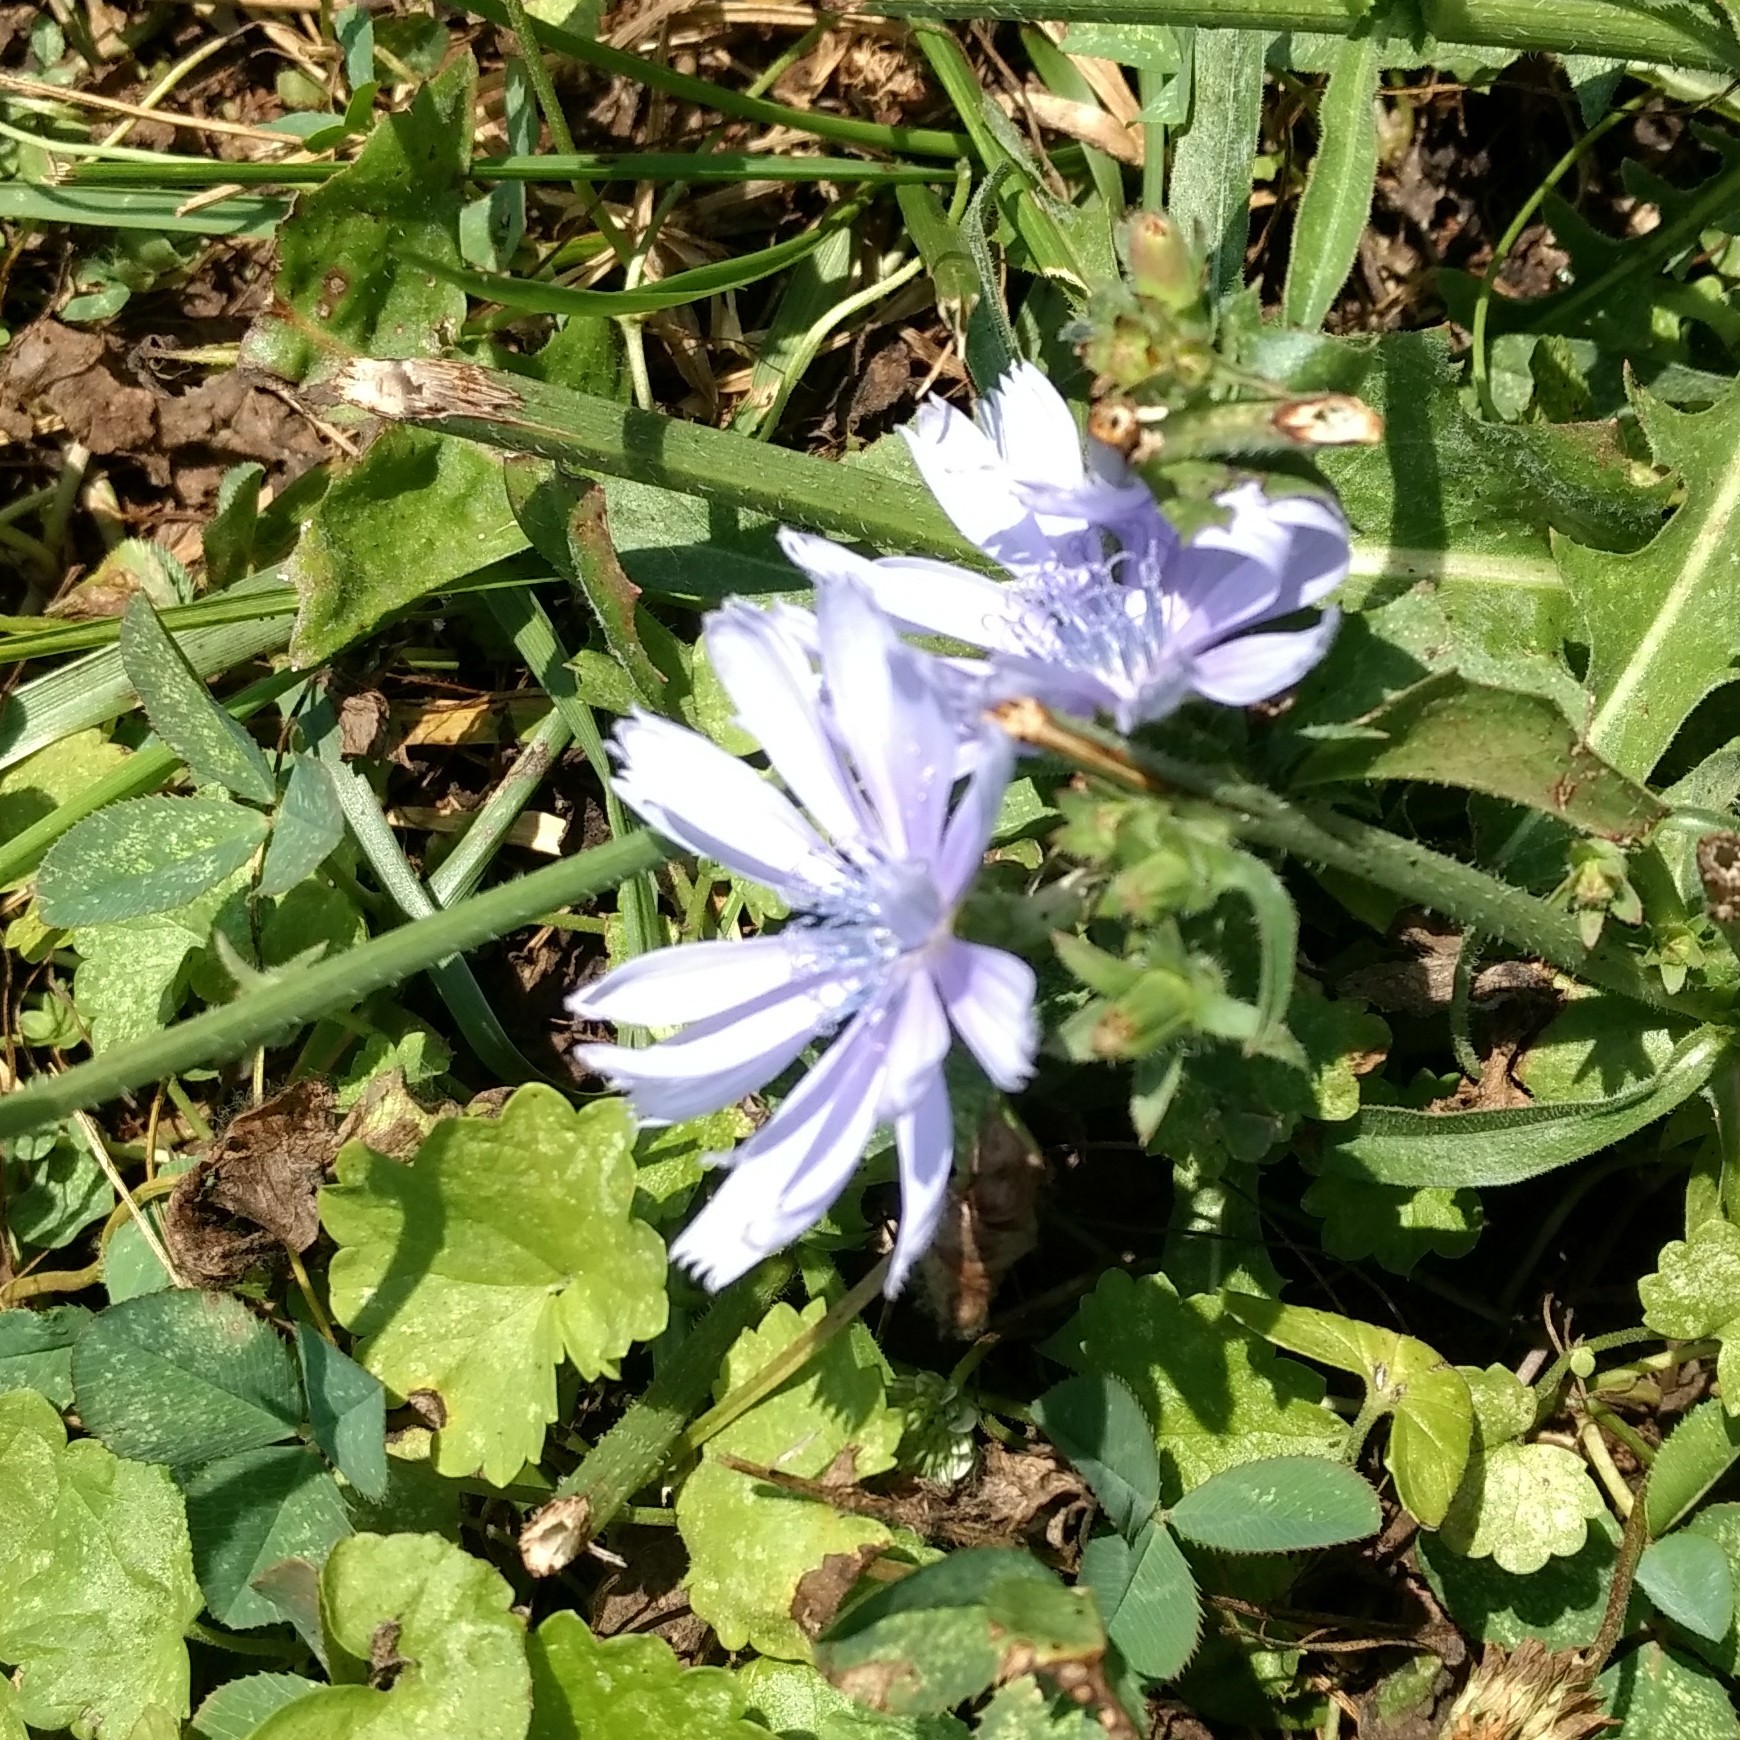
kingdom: Plantae
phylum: Tracheophyta
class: Magnoliopsida
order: Asterales
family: Asteraceae
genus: Cichorium
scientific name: Cichorium intybus
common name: Chicory
